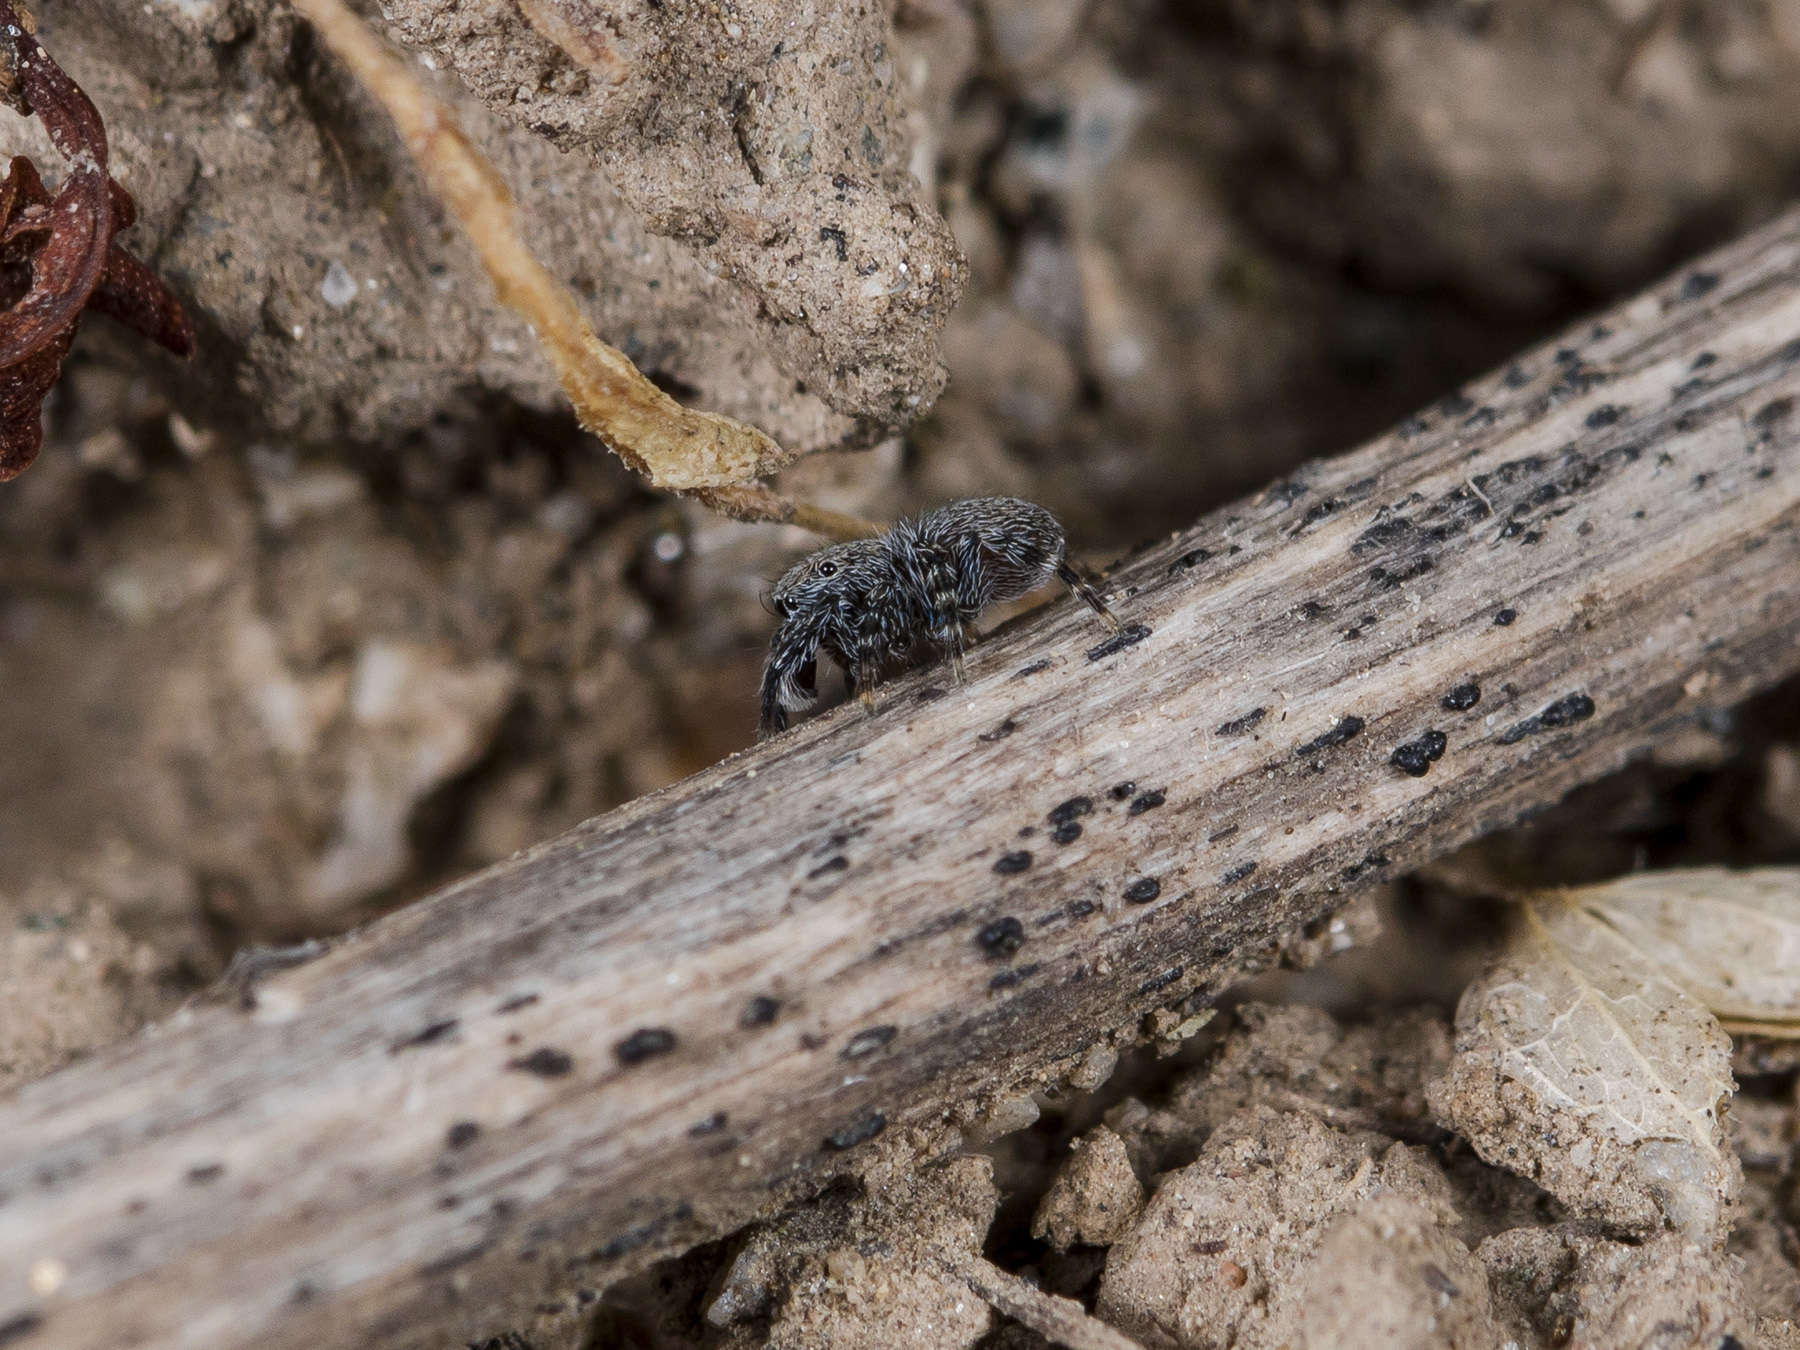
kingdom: Animalia
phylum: Arthropoda
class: Arachnida
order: Araneae
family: Salticidae
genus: Talavera
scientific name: Talavera aperta
